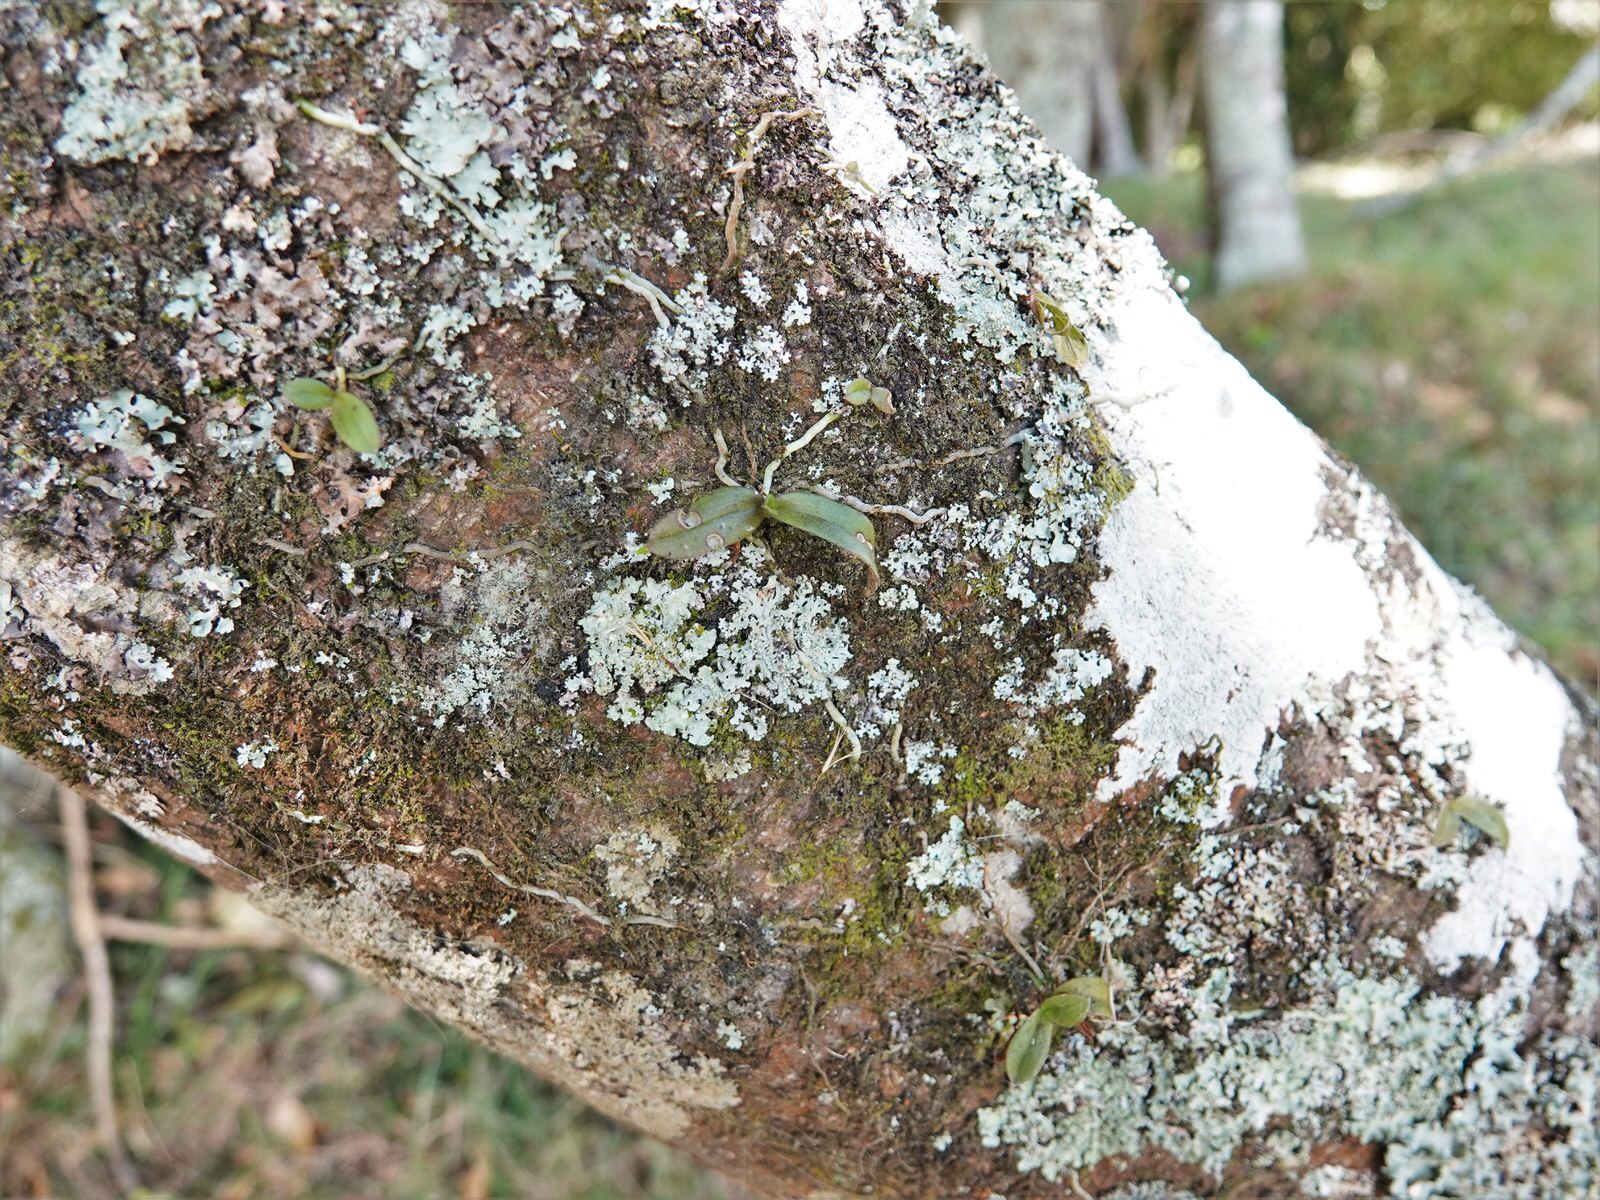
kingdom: Plantae
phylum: Tracheophyta
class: Liliopsida
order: Asparagales
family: Orchidaceae
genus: Drymoanthus
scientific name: Drymoanthus adversus
